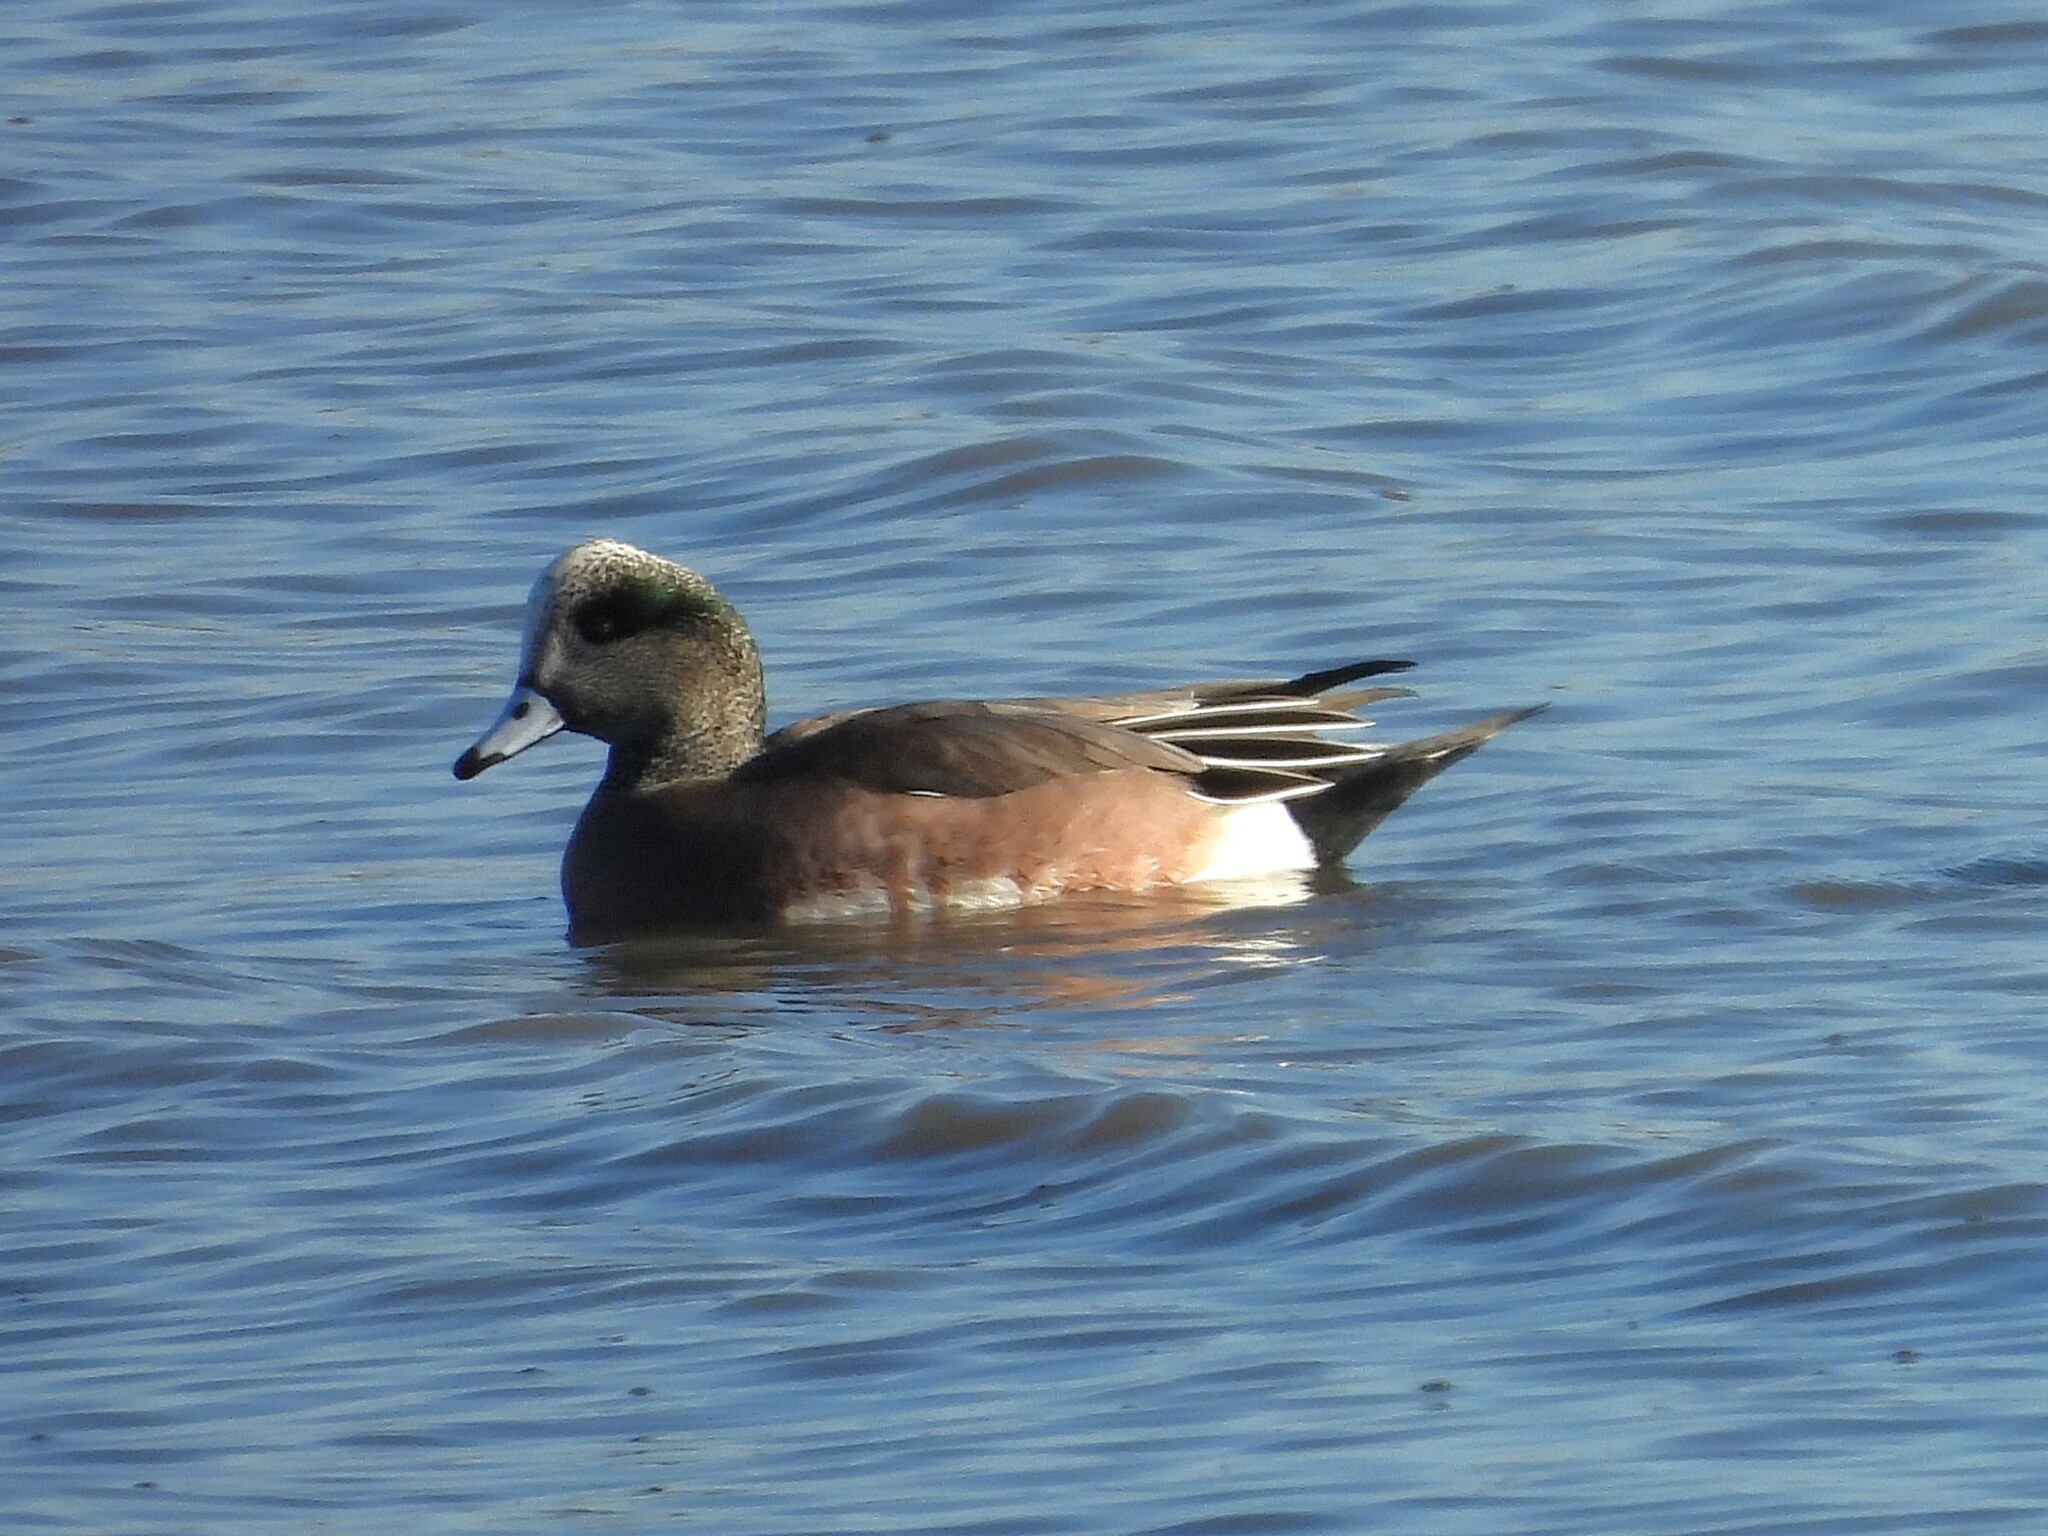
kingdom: Animalia
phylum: Chordata
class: Aves
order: Anseriformes
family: Anatidae
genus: Mareca
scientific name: Mareca americana
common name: American wigeon
